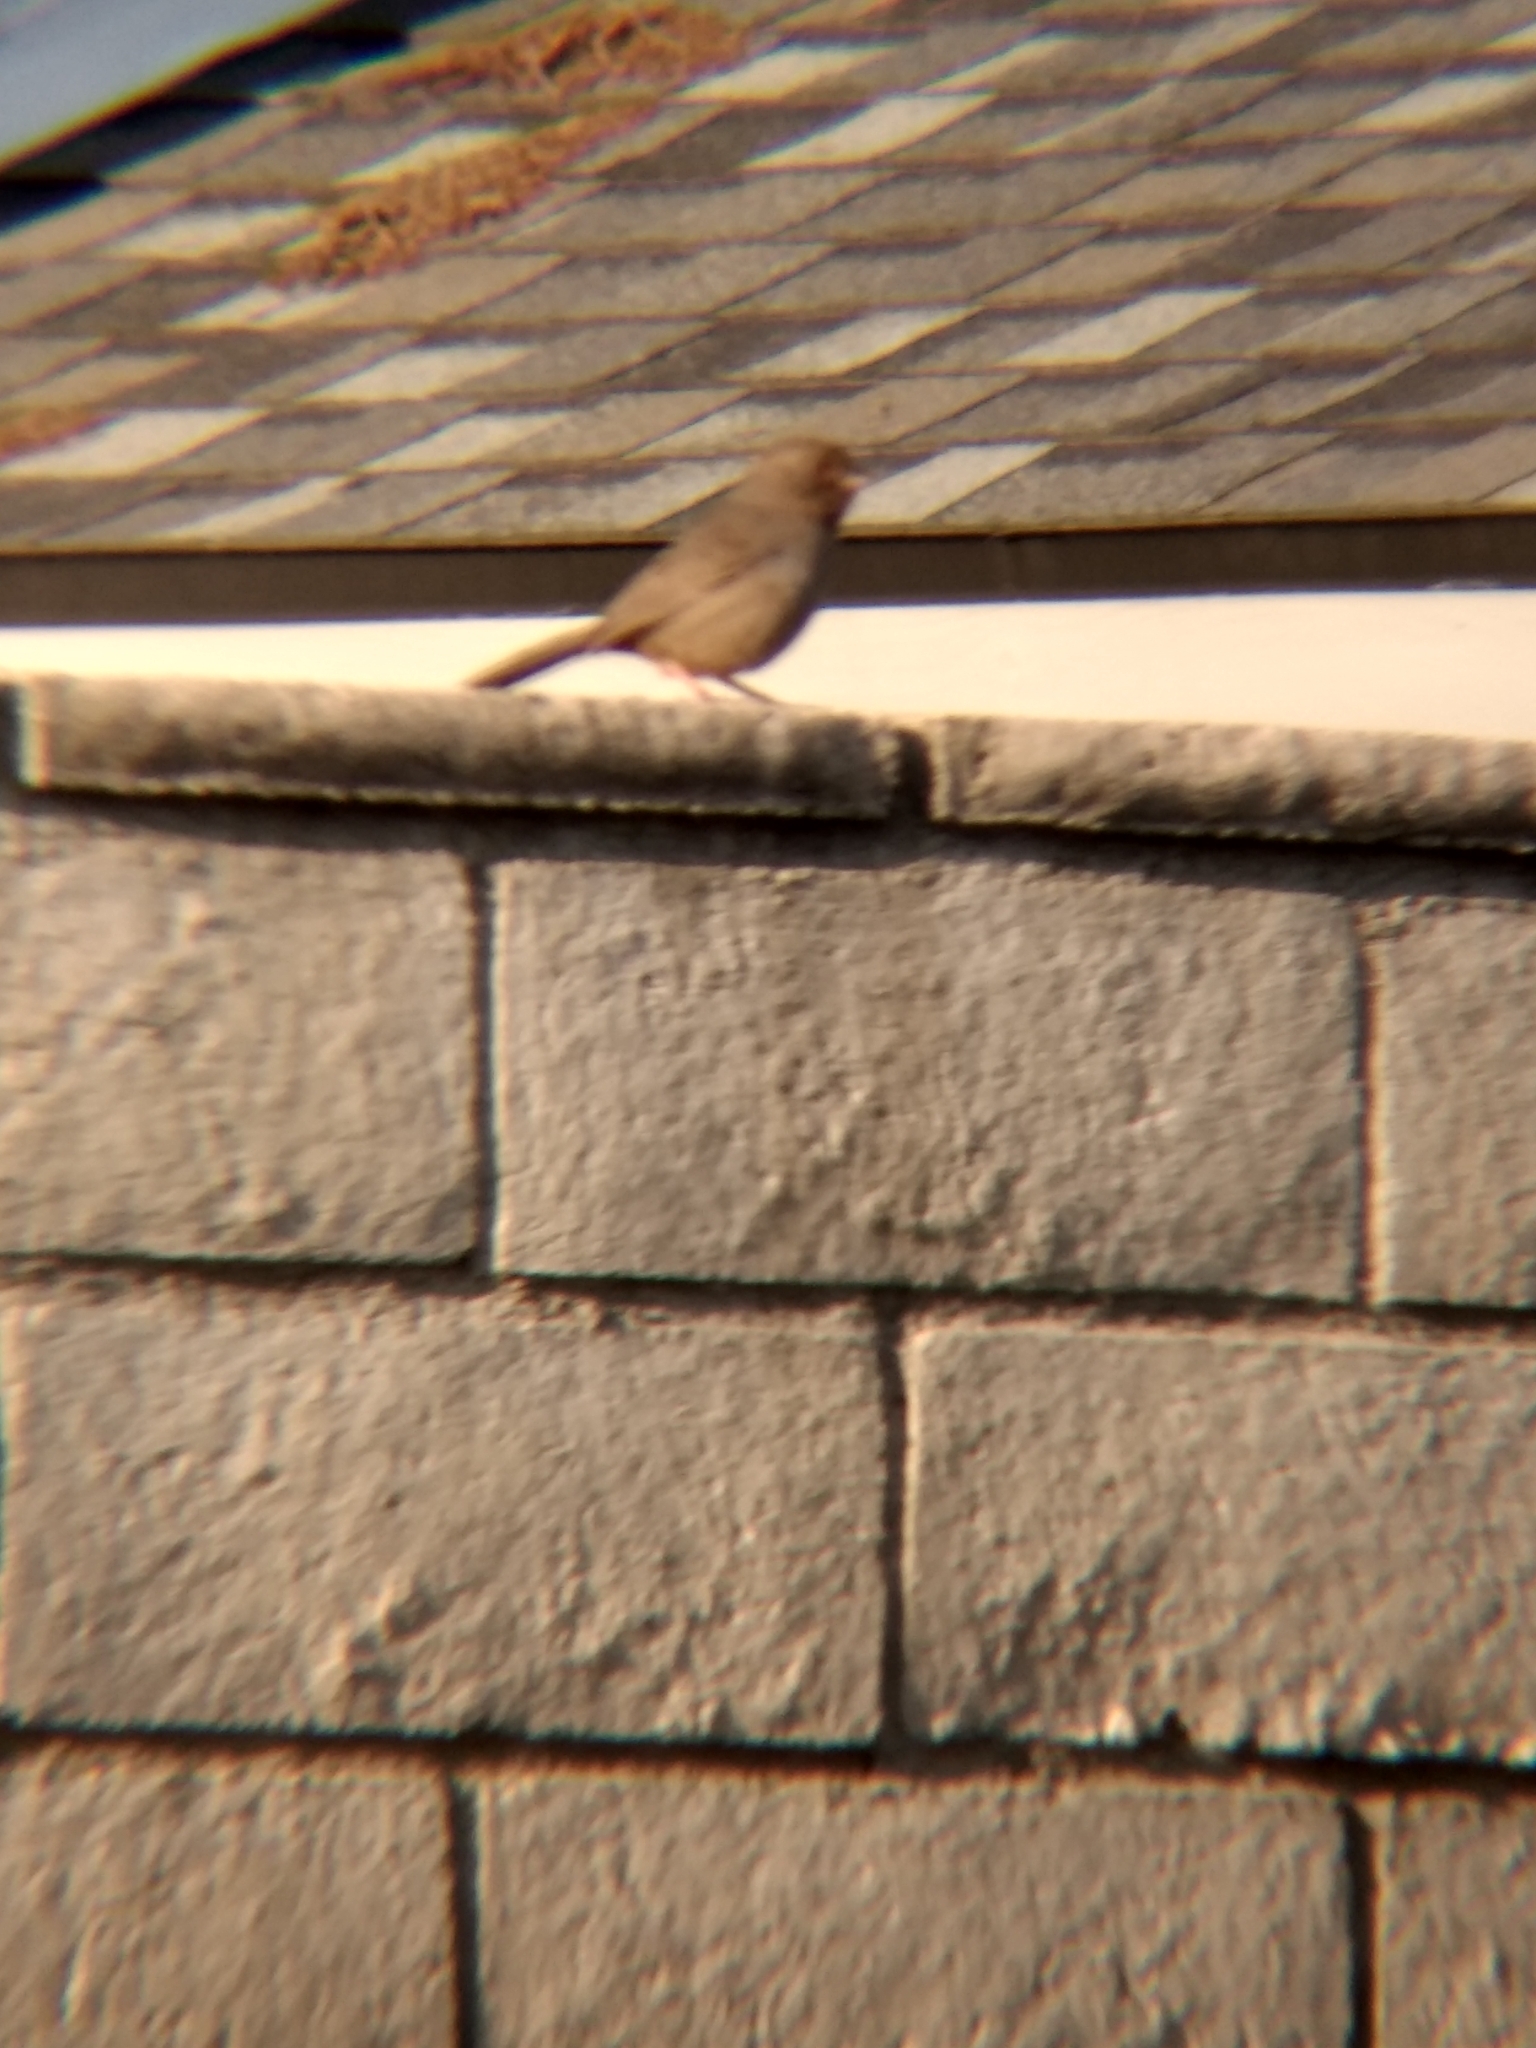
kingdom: Animalia
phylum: Chordata
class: Aves
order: Passeriformes
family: Passerellidae
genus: Melozone
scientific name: Melozone crissalis
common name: California towhee
